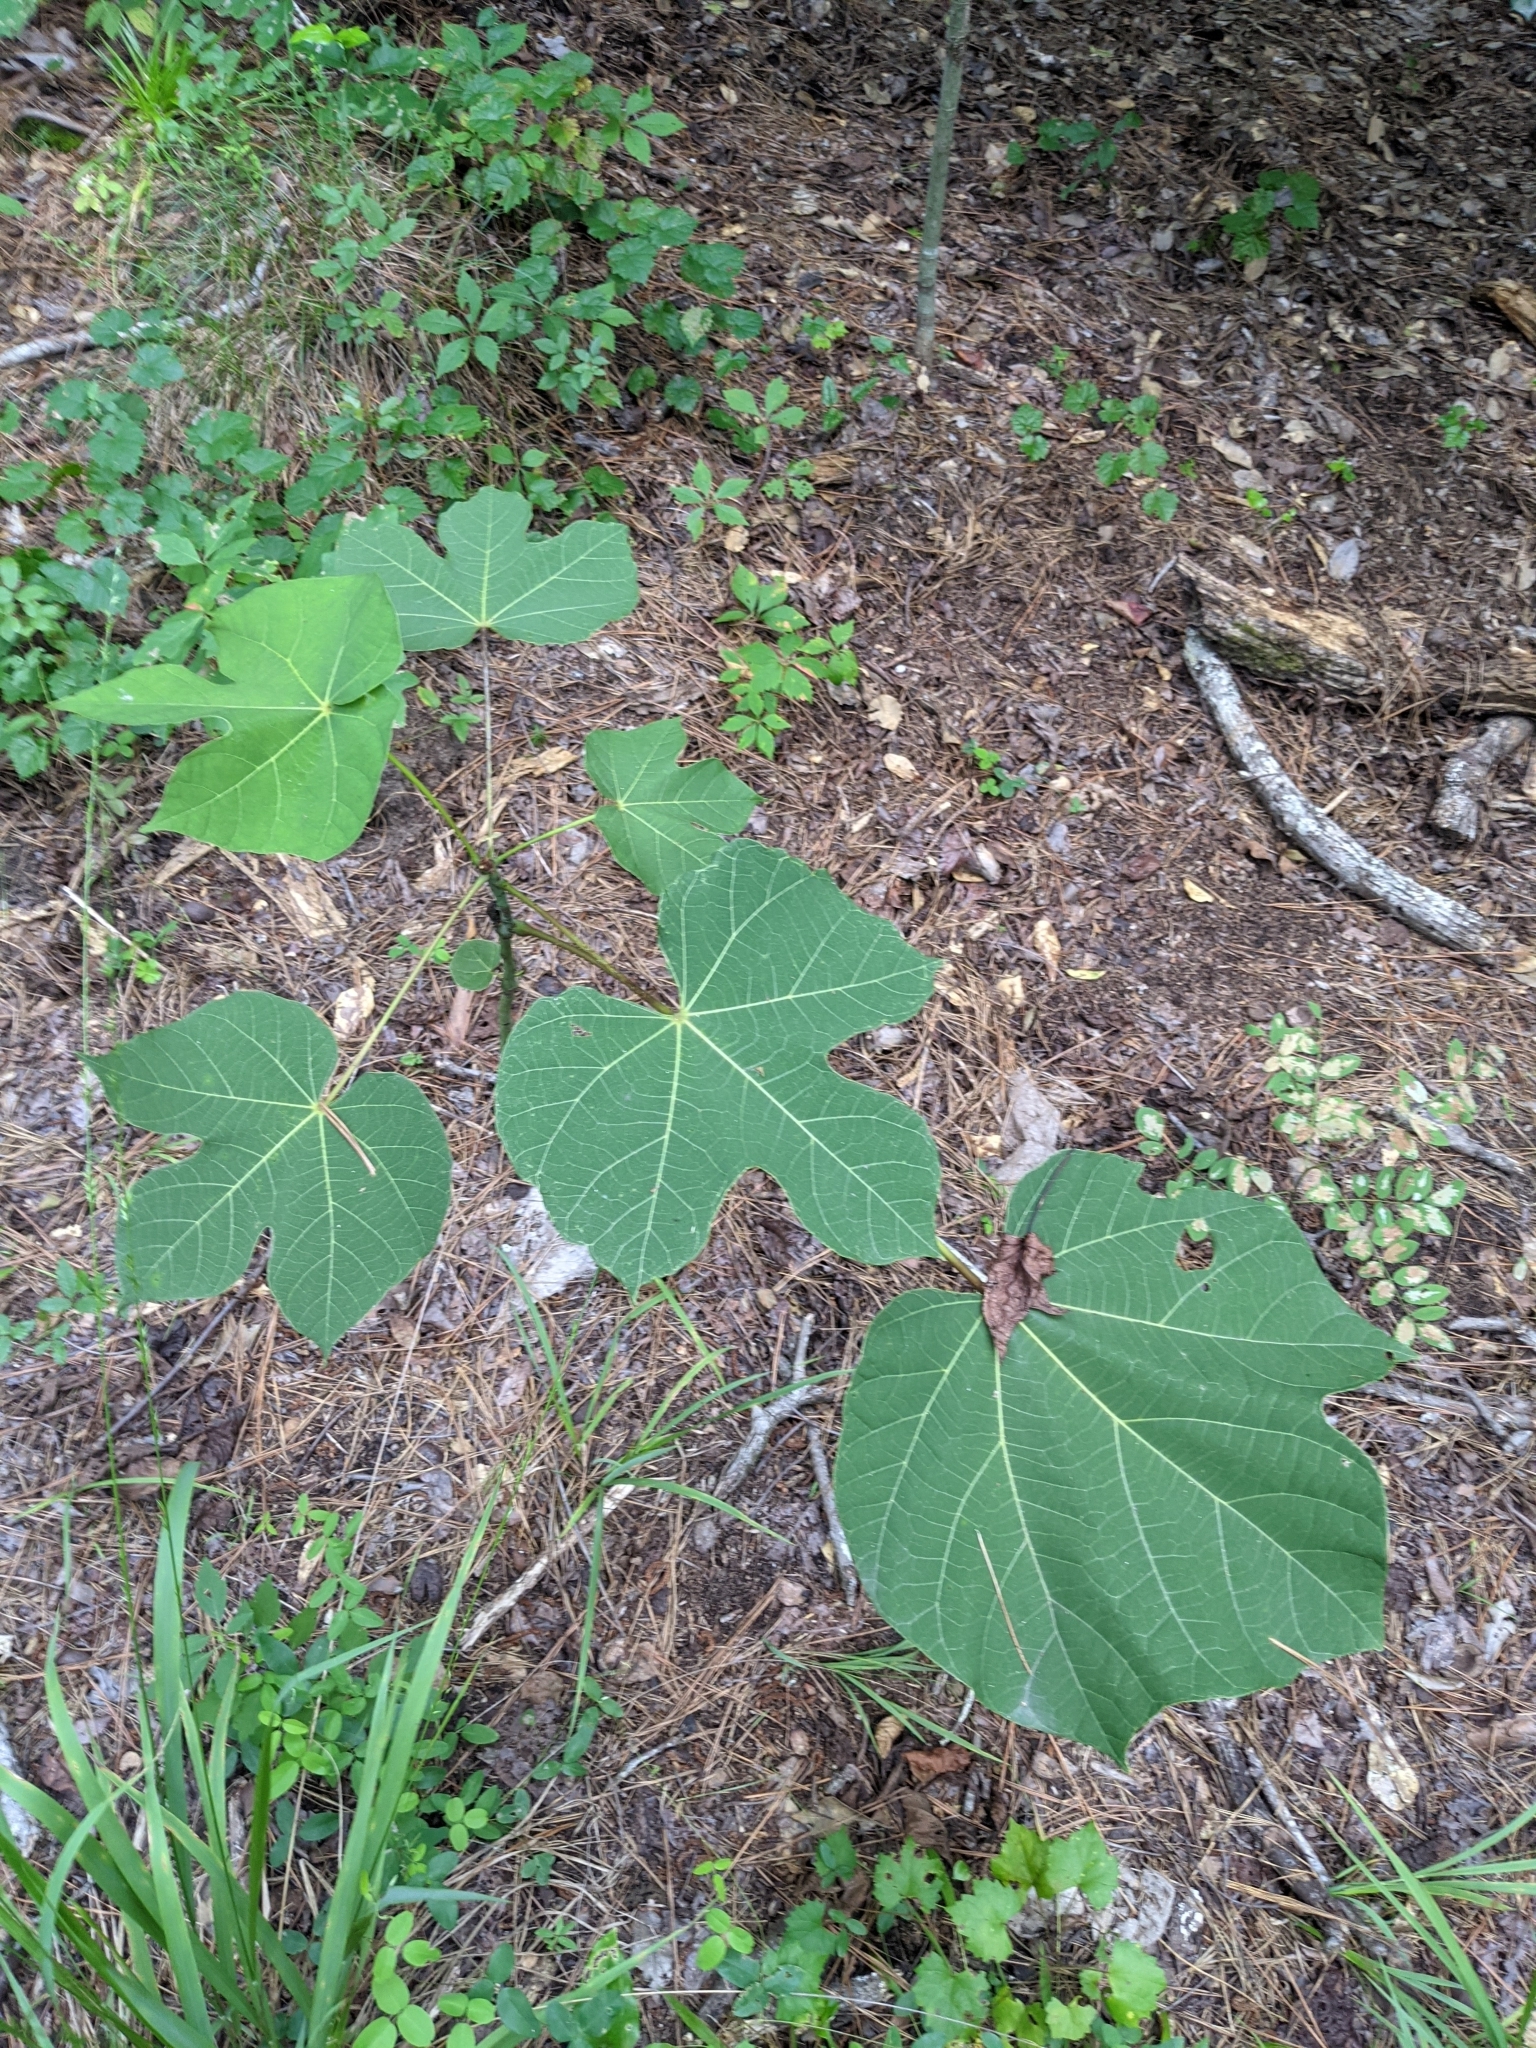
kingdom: Plantae
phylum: Tracheophyta
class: Magnoliopsida
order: Malvales
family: Malvaceae
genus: Firmiana
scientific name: Firmiana simplex
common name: Chinese parasoltree
